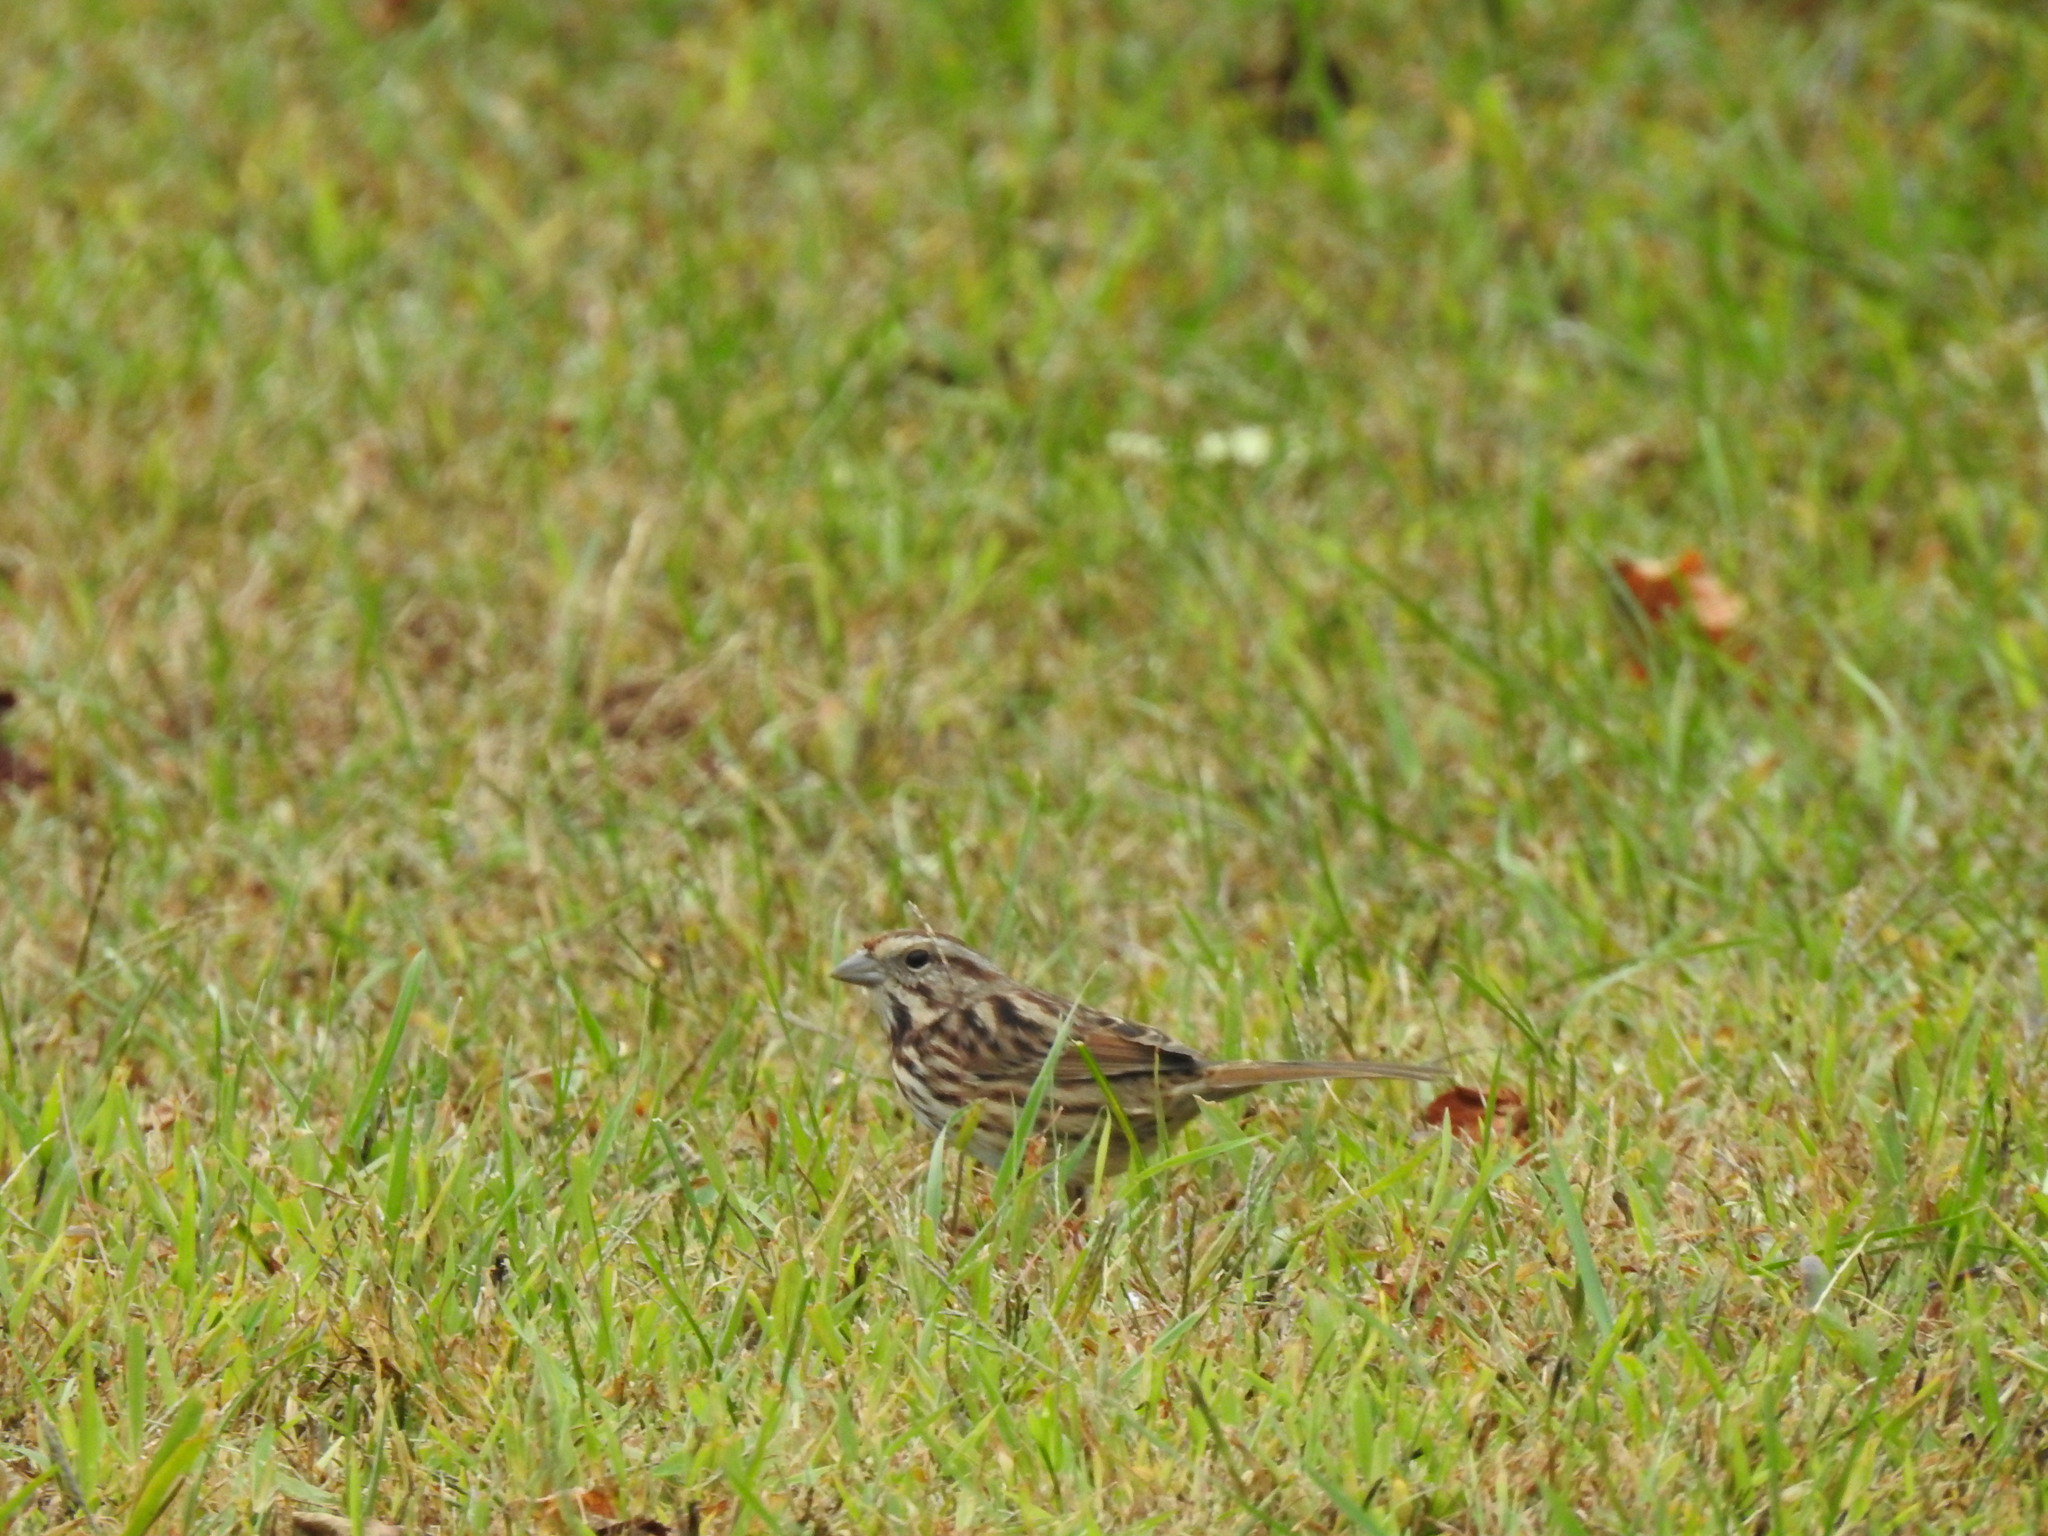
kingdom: Animalia
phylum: Chordata
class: Aves
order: Passeriformes
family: Passerellidae
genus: Melospiza
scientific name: Melospiza melodia
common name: Song sparrow
